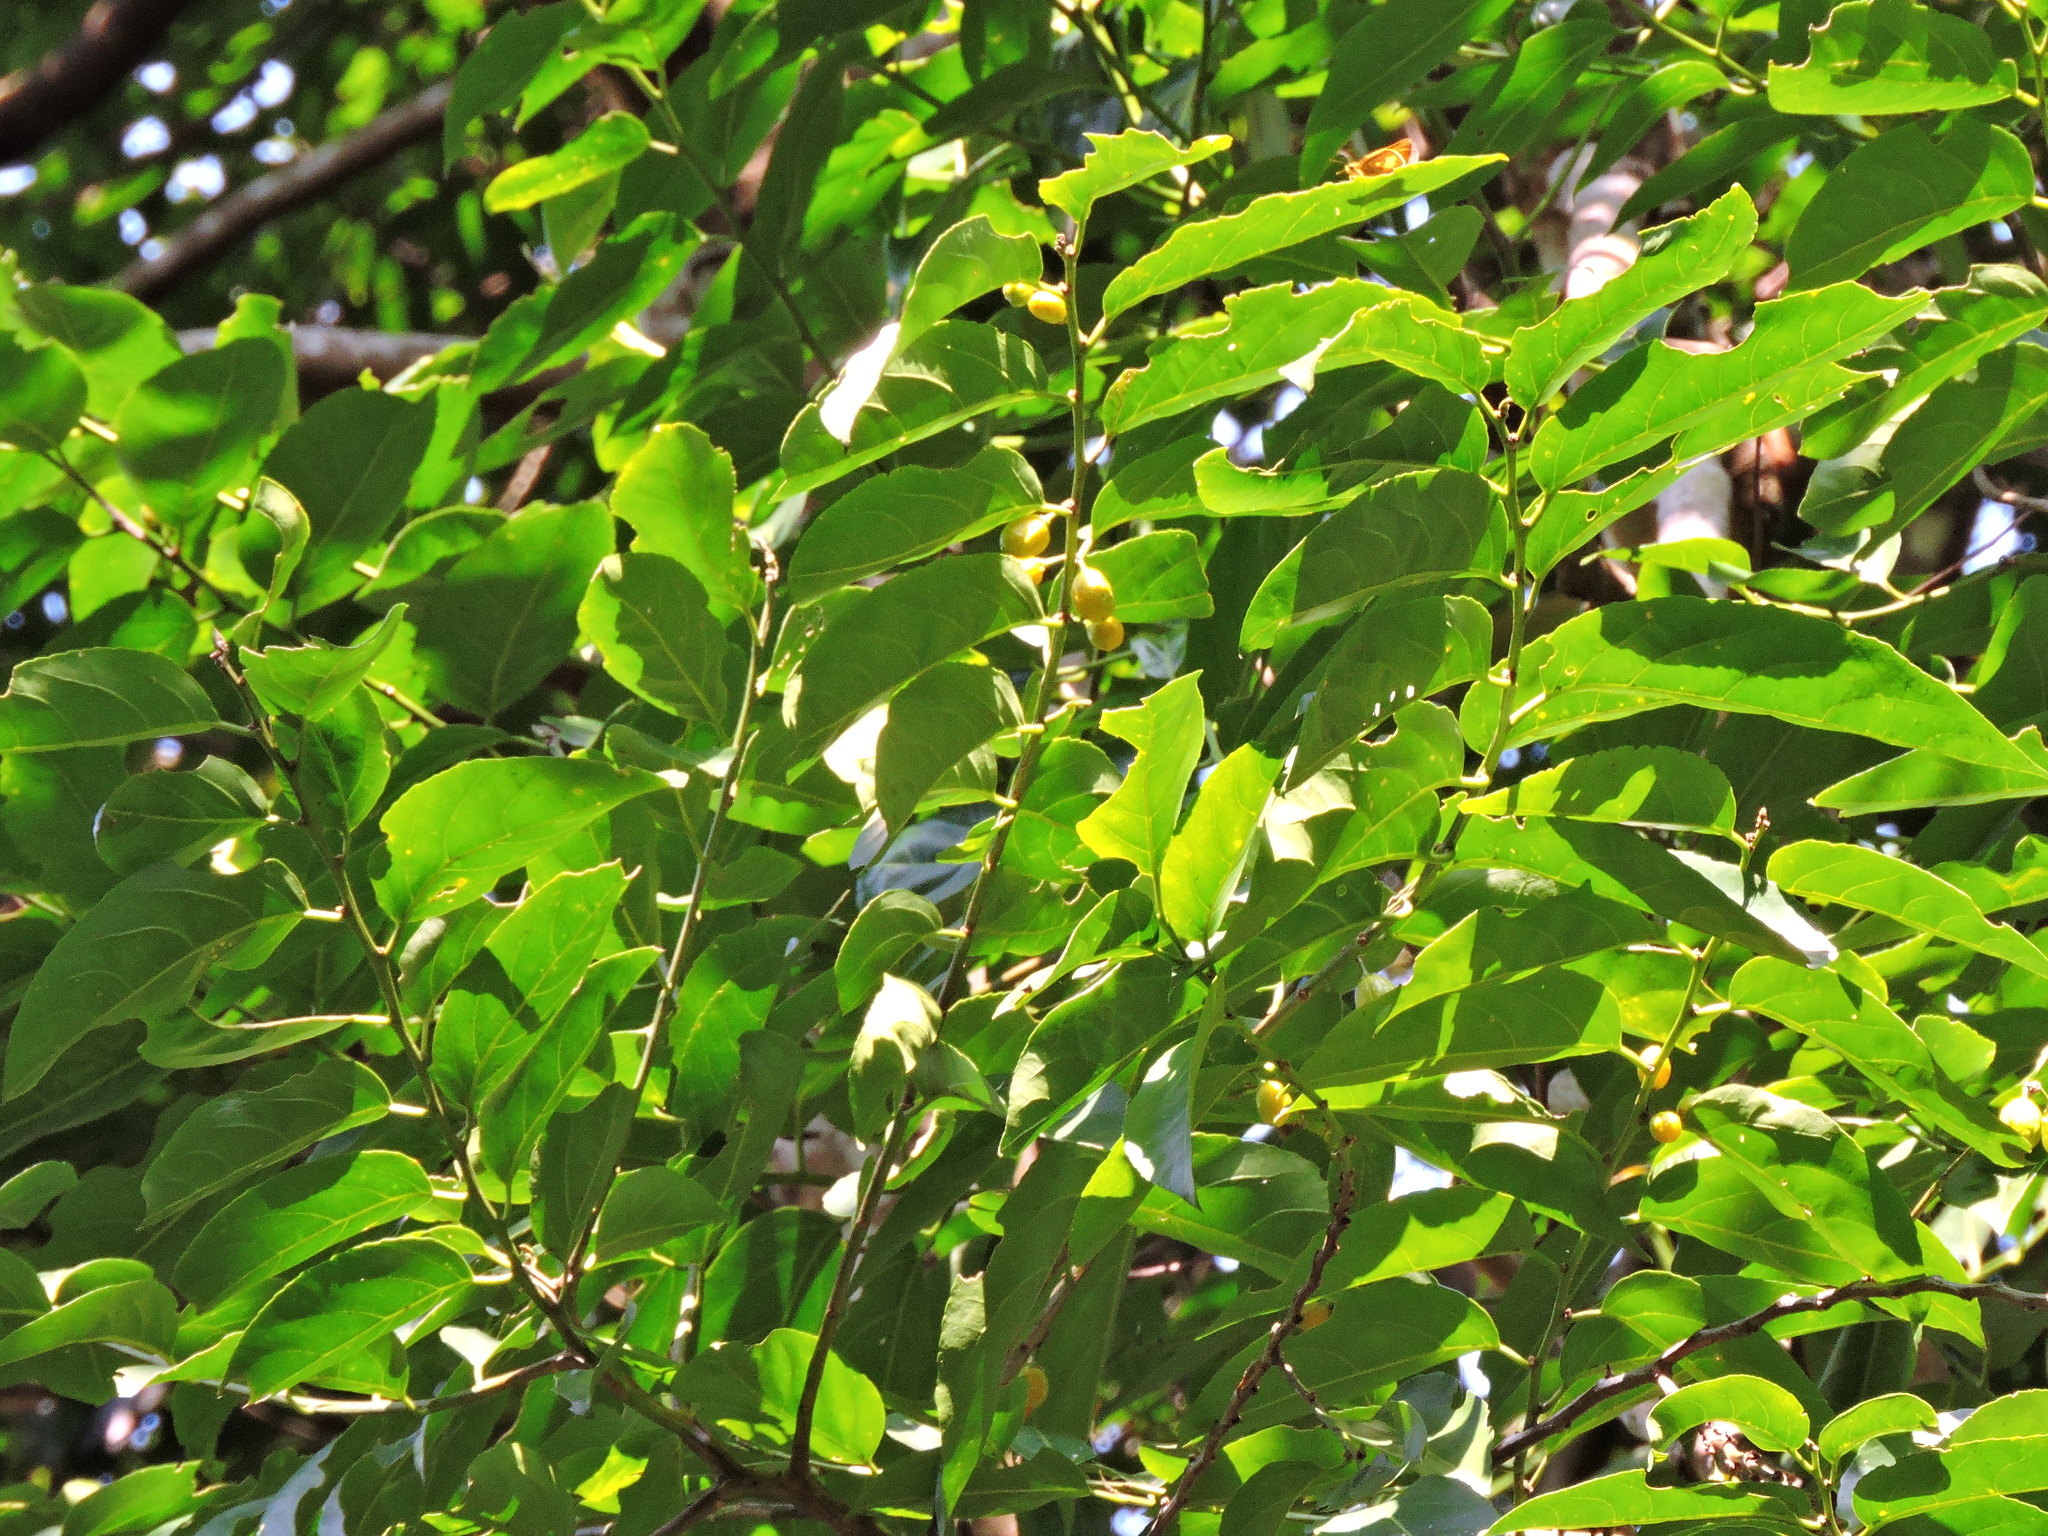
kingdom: Plantae
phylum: Tracheophyta
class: Magnoliopsida
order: Malpighiales
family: Salicaceae
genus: Casearia
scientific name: Casearia glomerata
